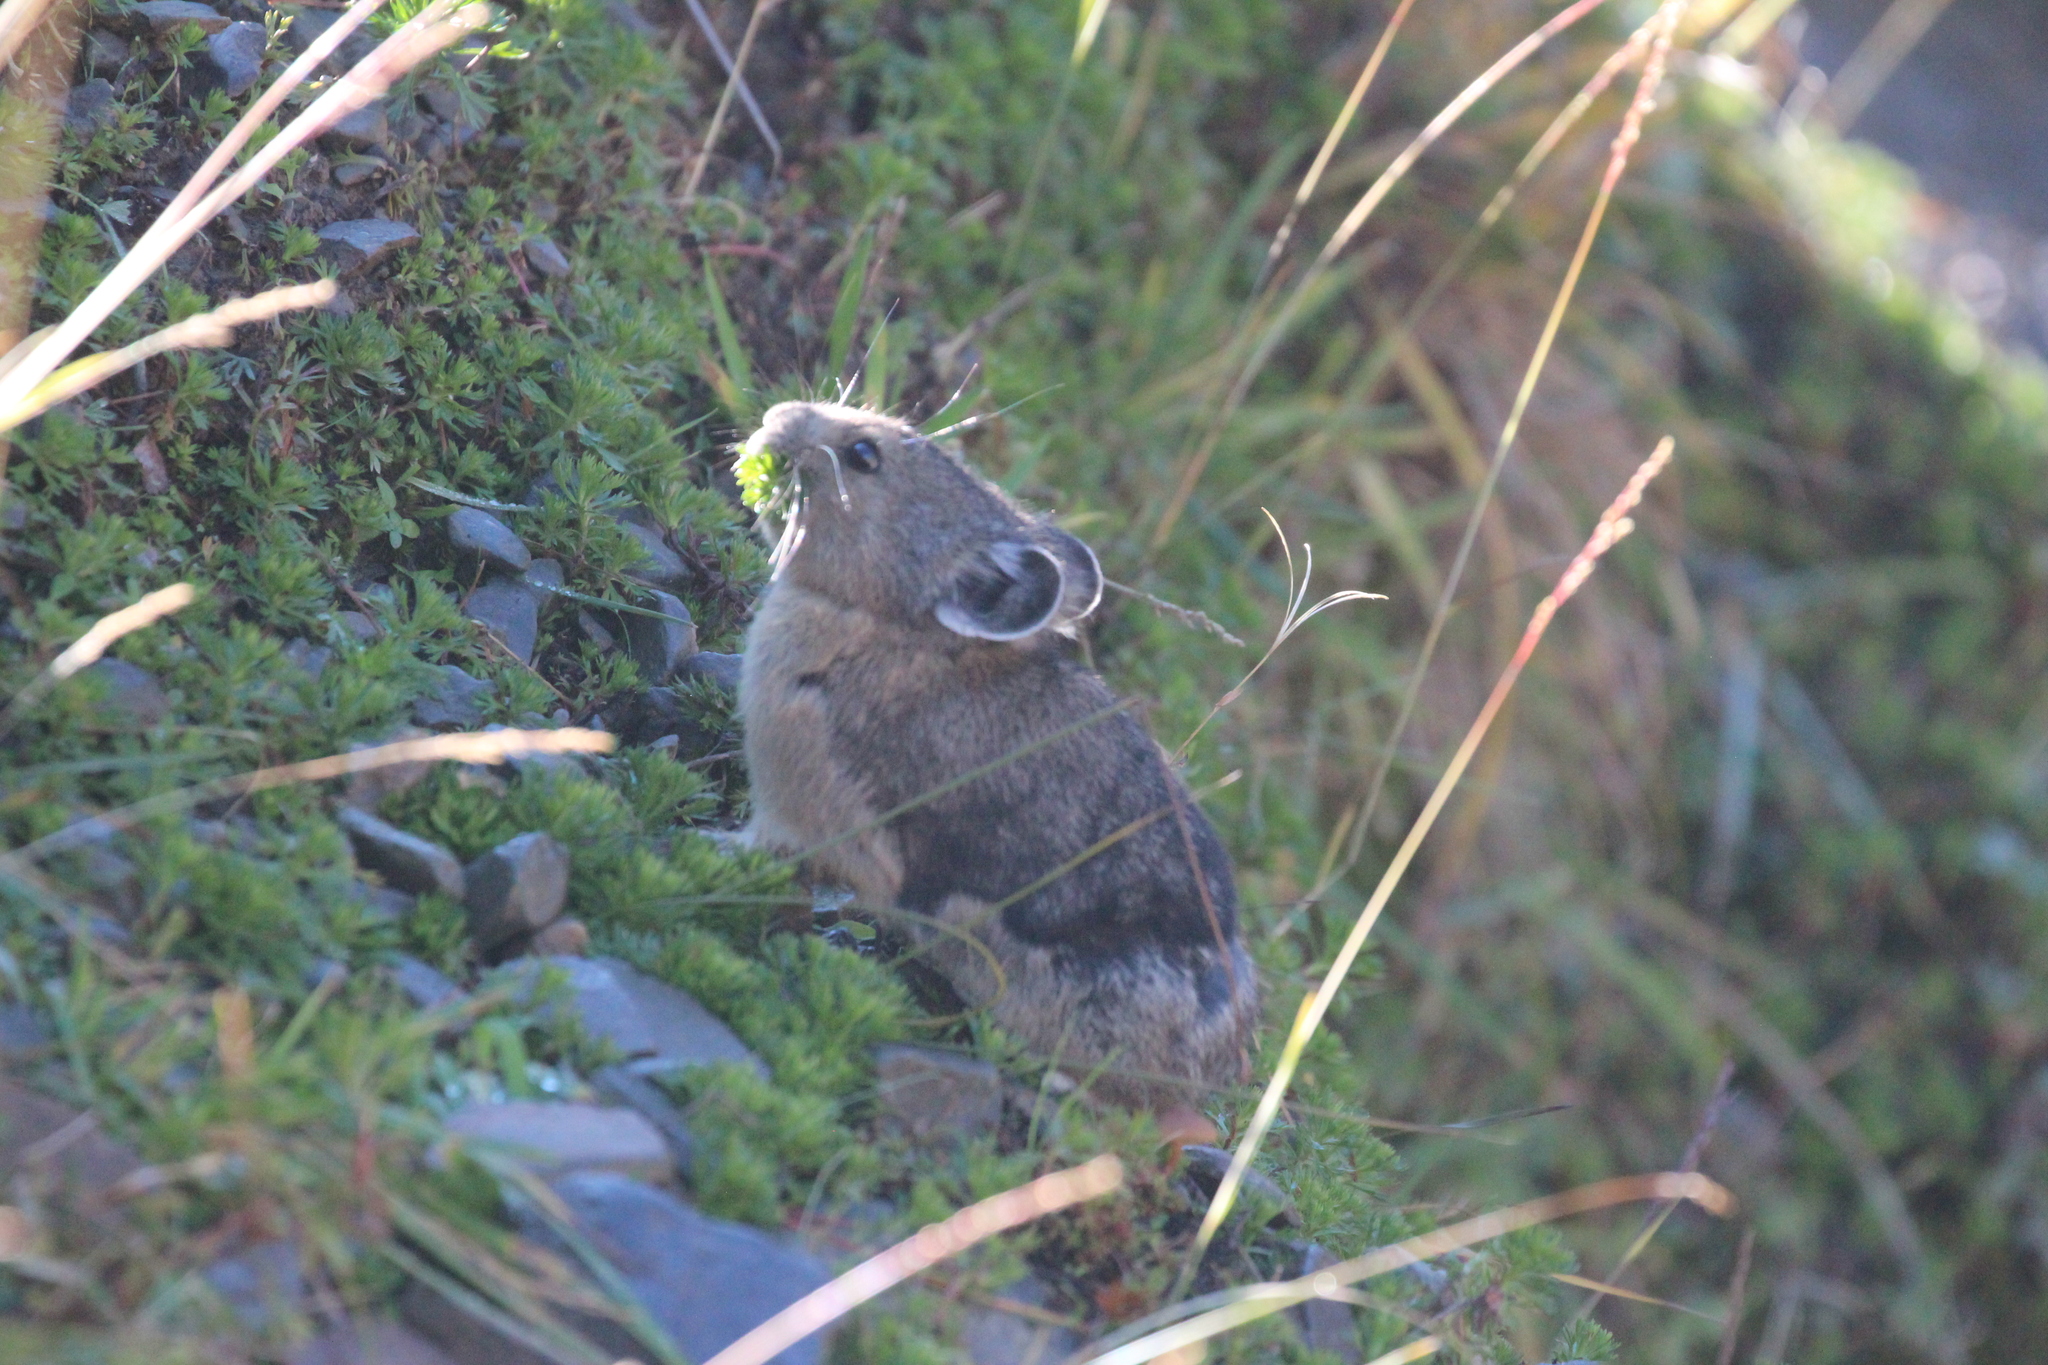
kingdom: Animalia
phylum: Chordata
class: Mammalia
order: Lagomorpha
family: Ochotonidae
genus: Ochotona
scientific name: Ochotona princeps
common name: American pika
